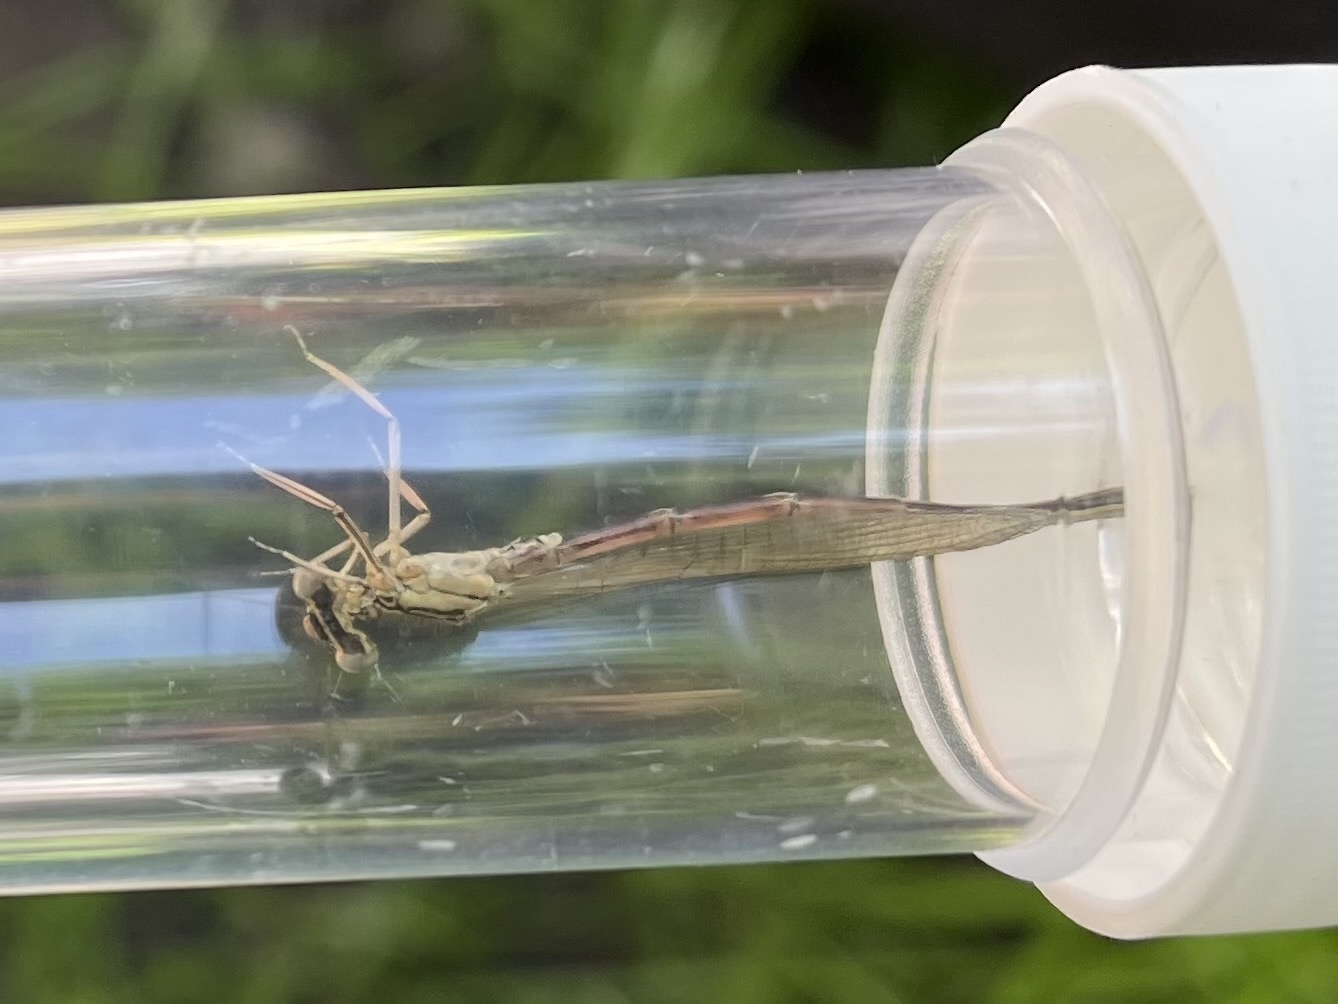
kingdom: Animalia
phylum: Arthropoda
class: Insecta
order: Odonata
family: Platycnemididae
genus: Platycnemis
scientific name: Platycnemis pennipes
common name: White-legged damselfly
